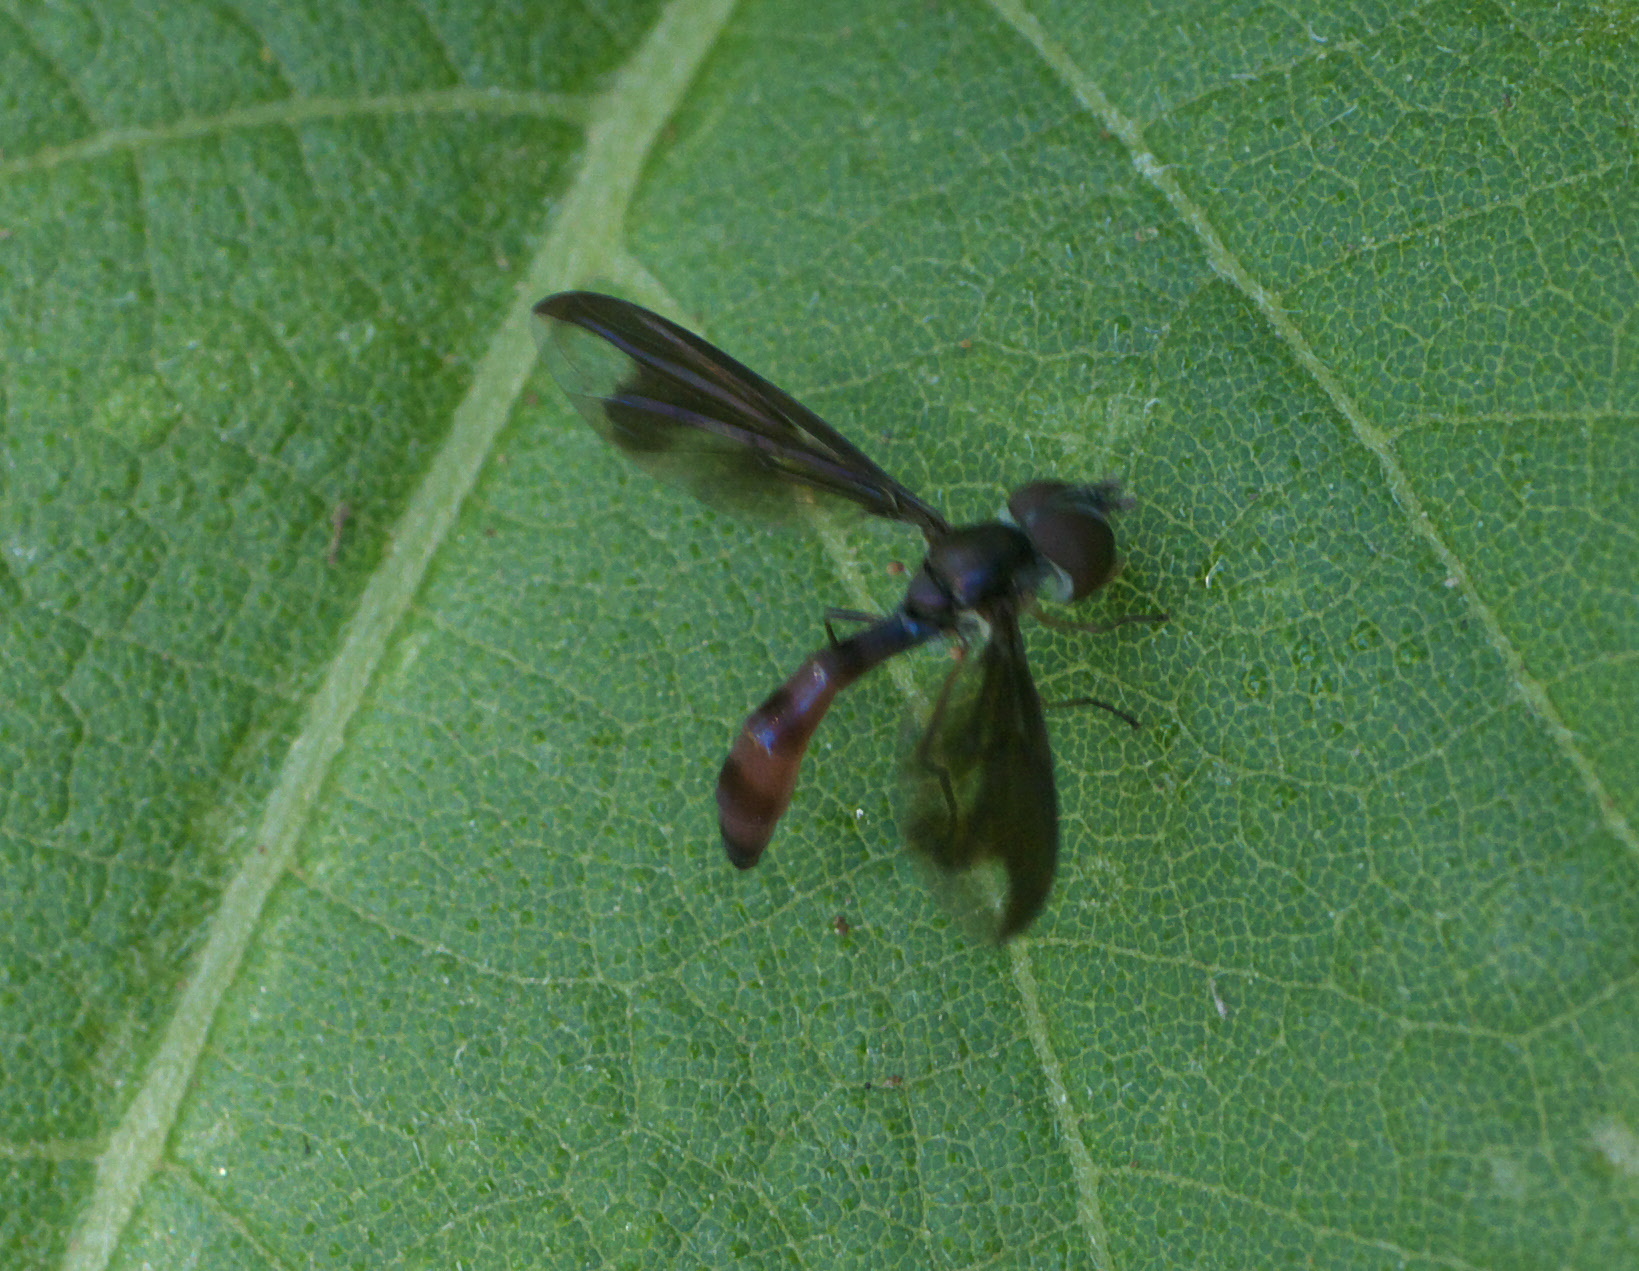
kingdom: Animalia
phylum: Arthropoda
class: Insecta
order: Diptera
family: Syrphidae
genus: Ocyptamus
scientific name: Ocyptamus fuscipennis
